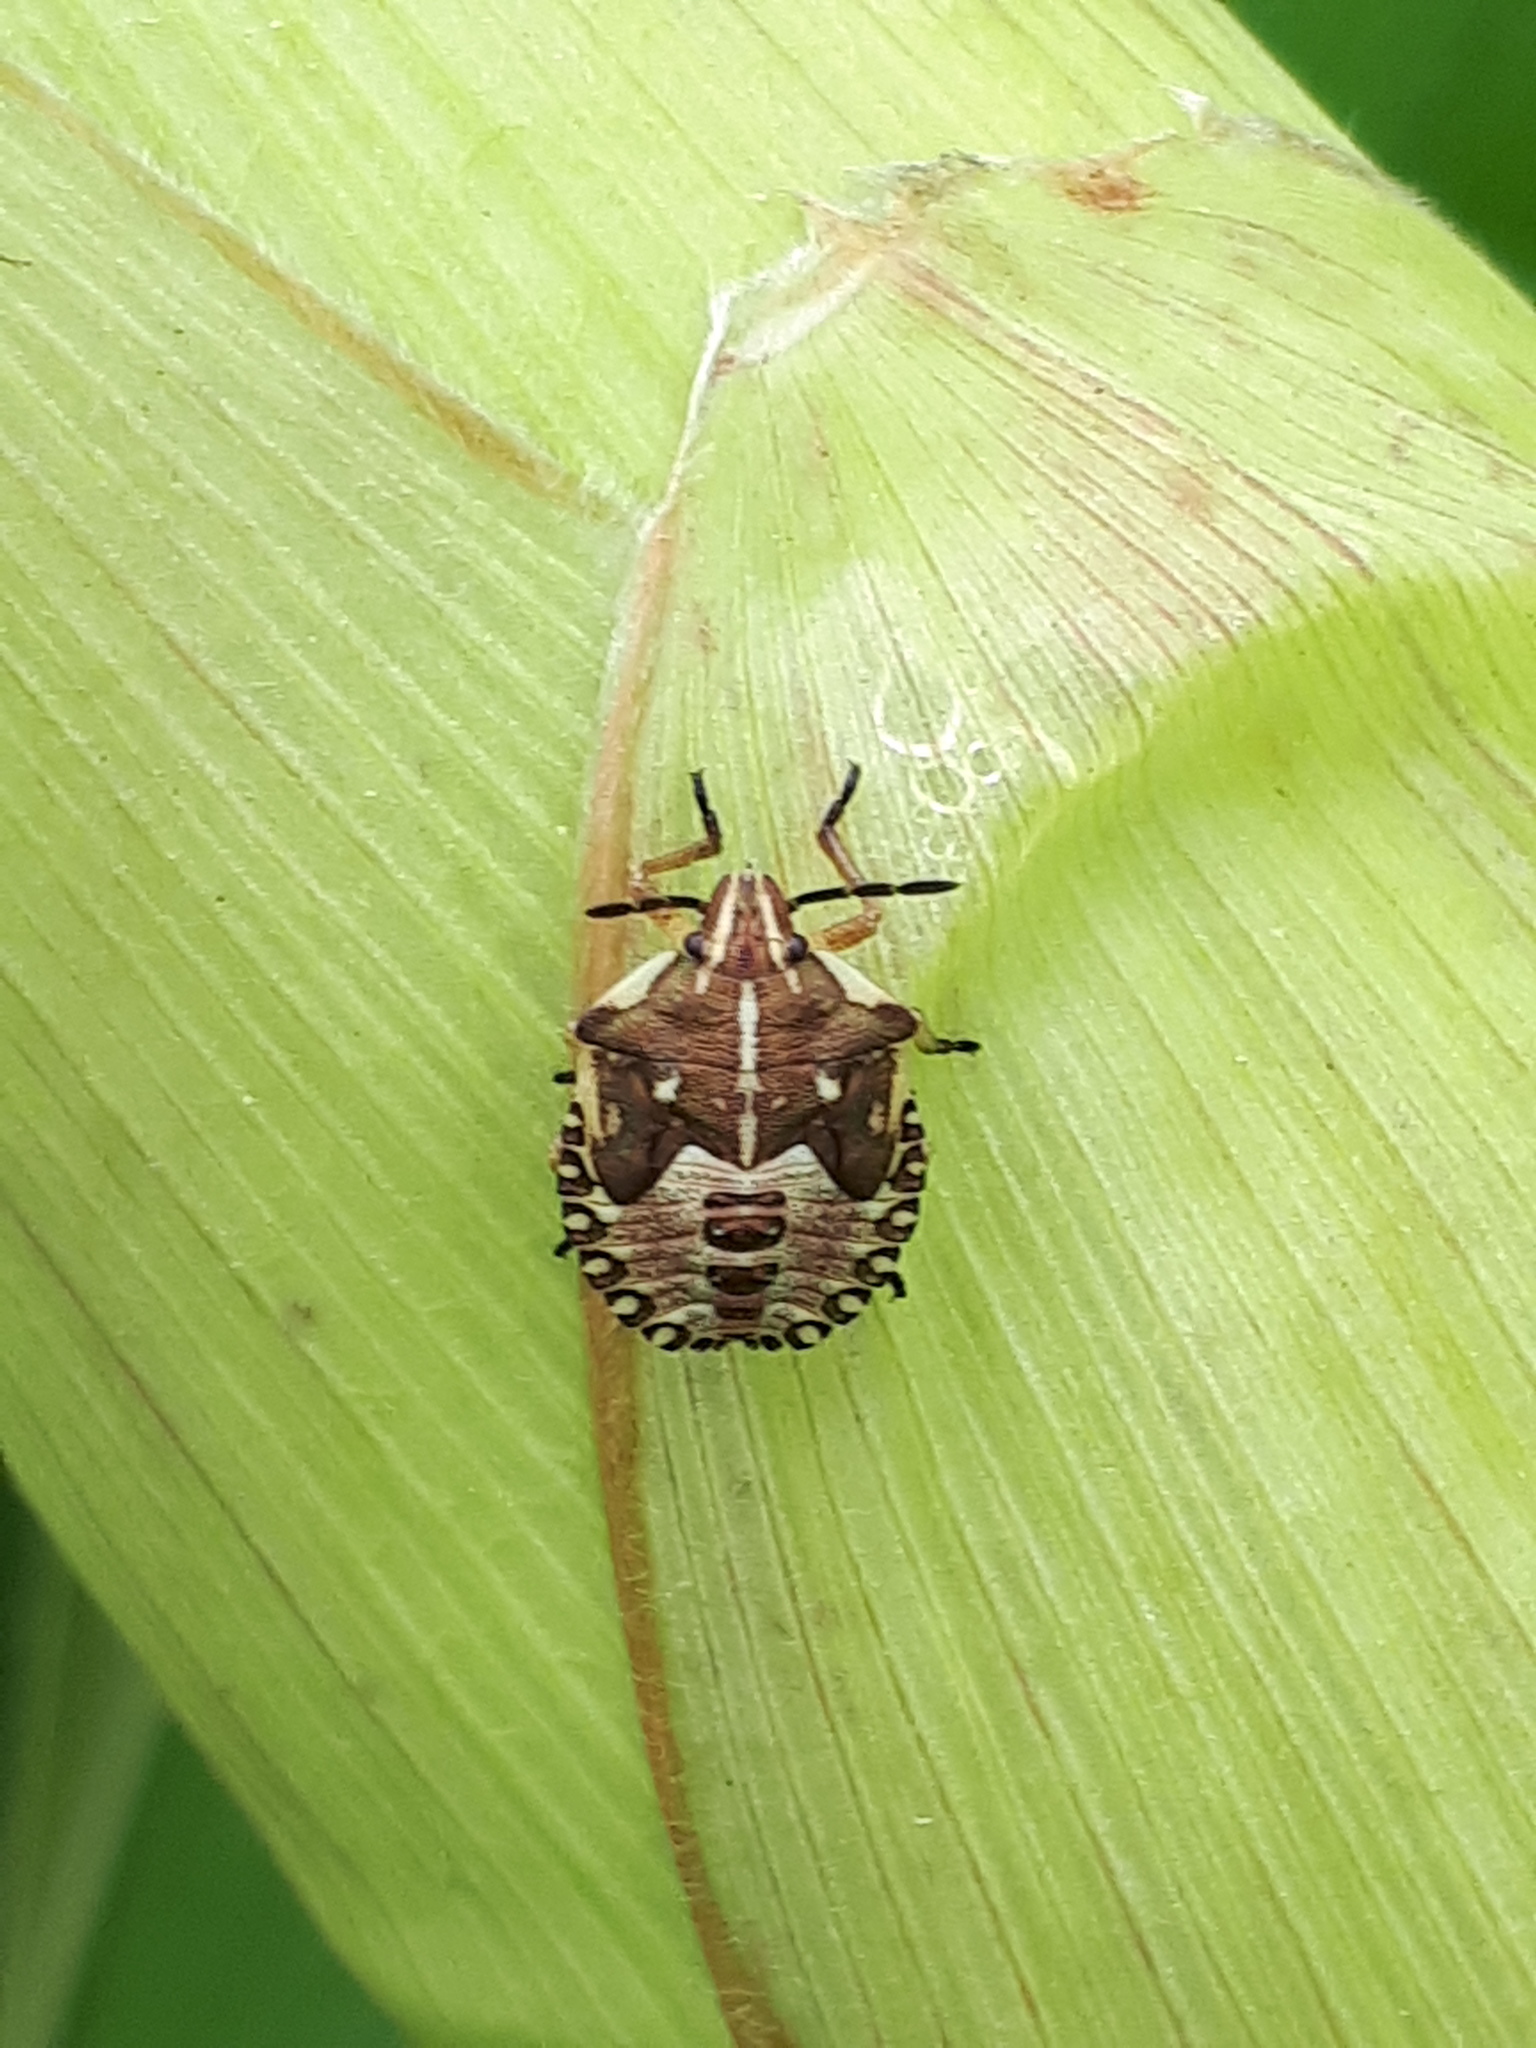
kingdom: Animalia
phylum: Arthropoda
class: Insecta
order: Hemiptera
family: Pentatomidae
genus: Carpocoris
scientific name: Carpocoris fuscispinus
